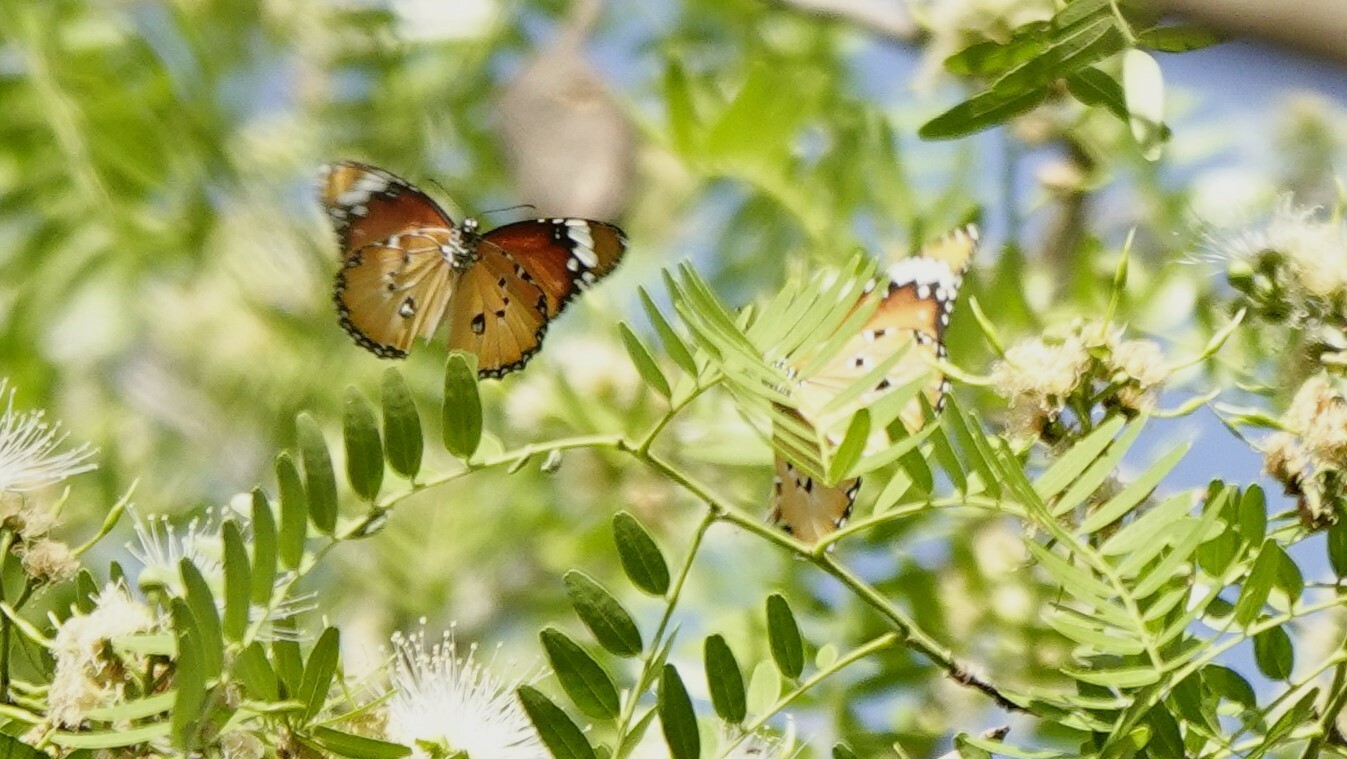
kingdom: Animalia
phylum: Arthropoda
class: Insecta
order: Lepidoptera
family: Nymphalidae
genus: Danaus
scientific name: Danaus chrysippus
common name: Plain tiger
